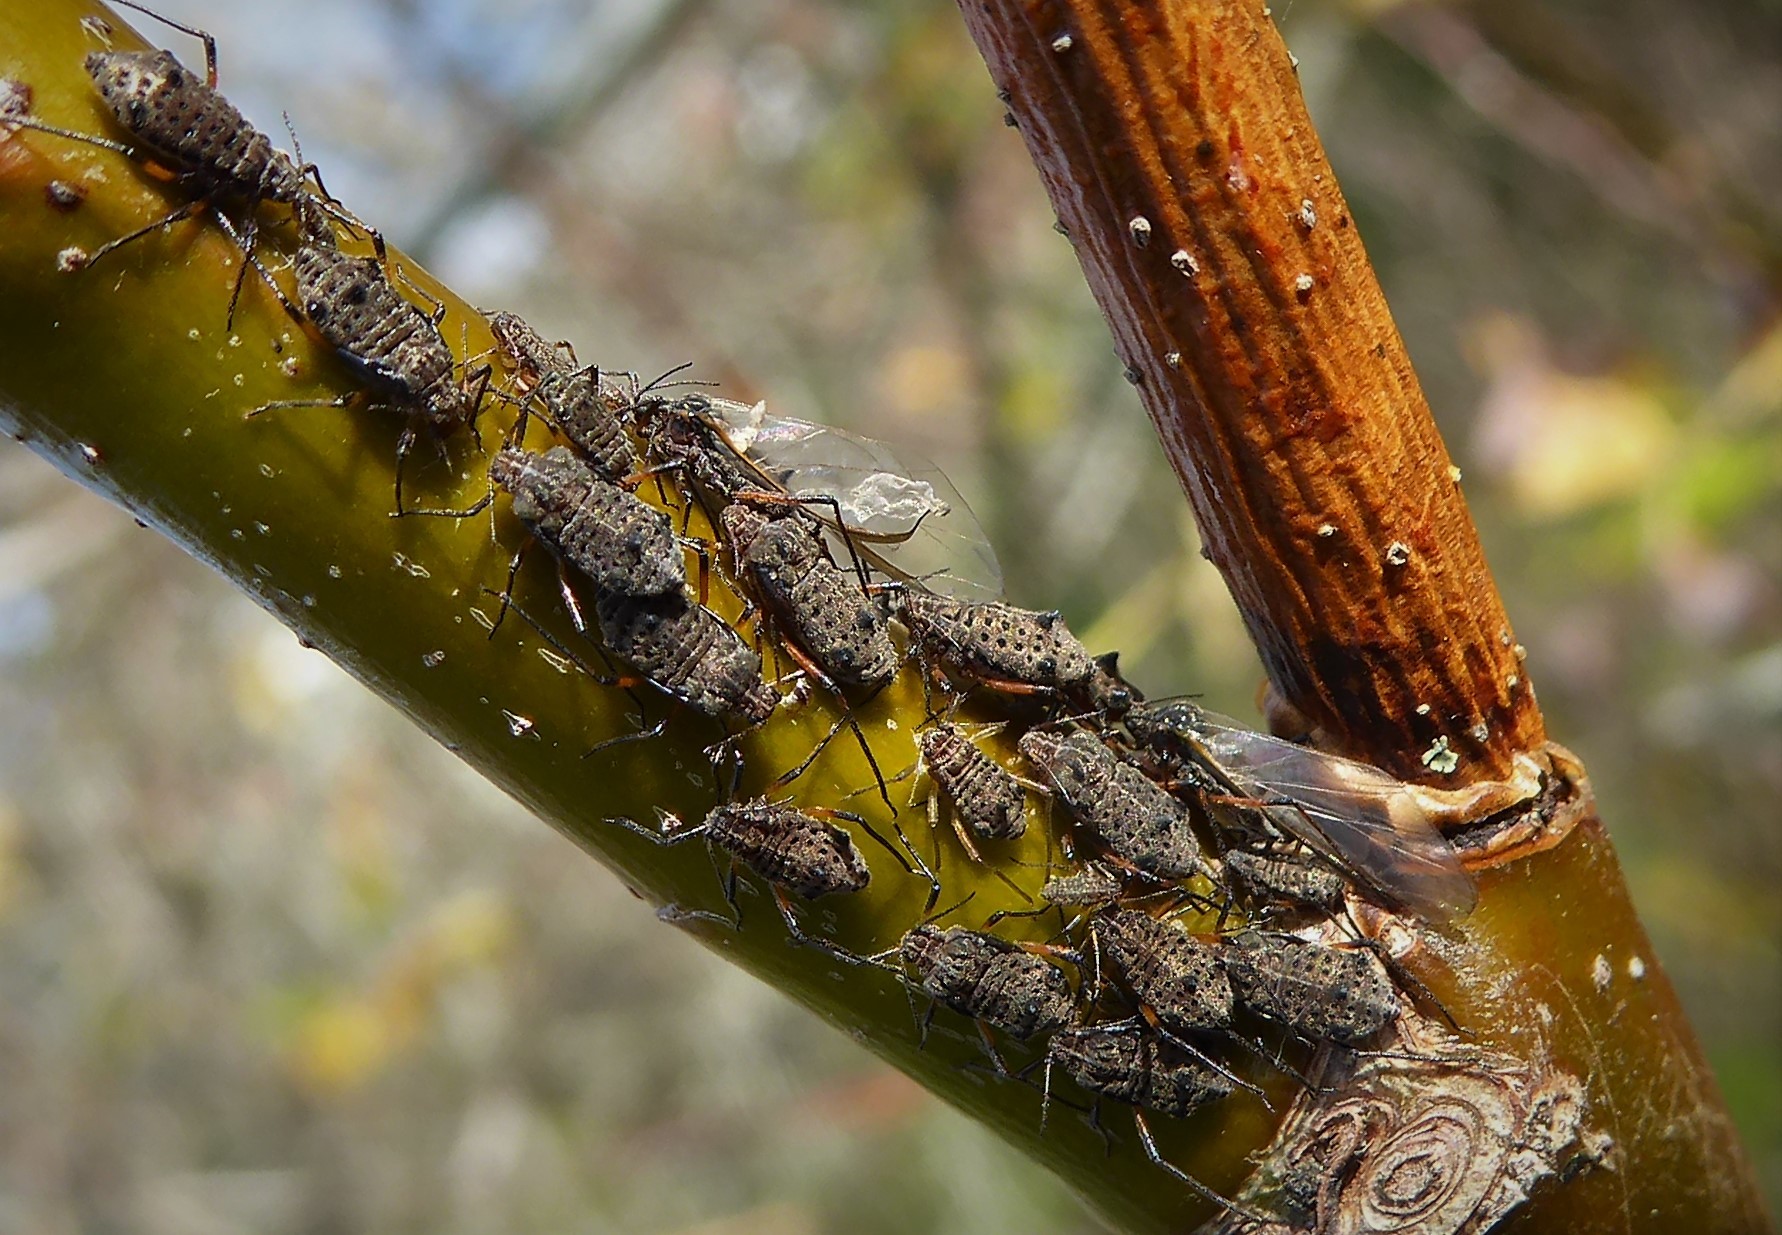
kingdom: Animalia
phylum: Arthropoda
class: Insecta
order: Hemiptera
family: Aphididae
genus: Tuberolachnus
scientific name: Tuberolachnus salignus
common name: Giant willow aphid
